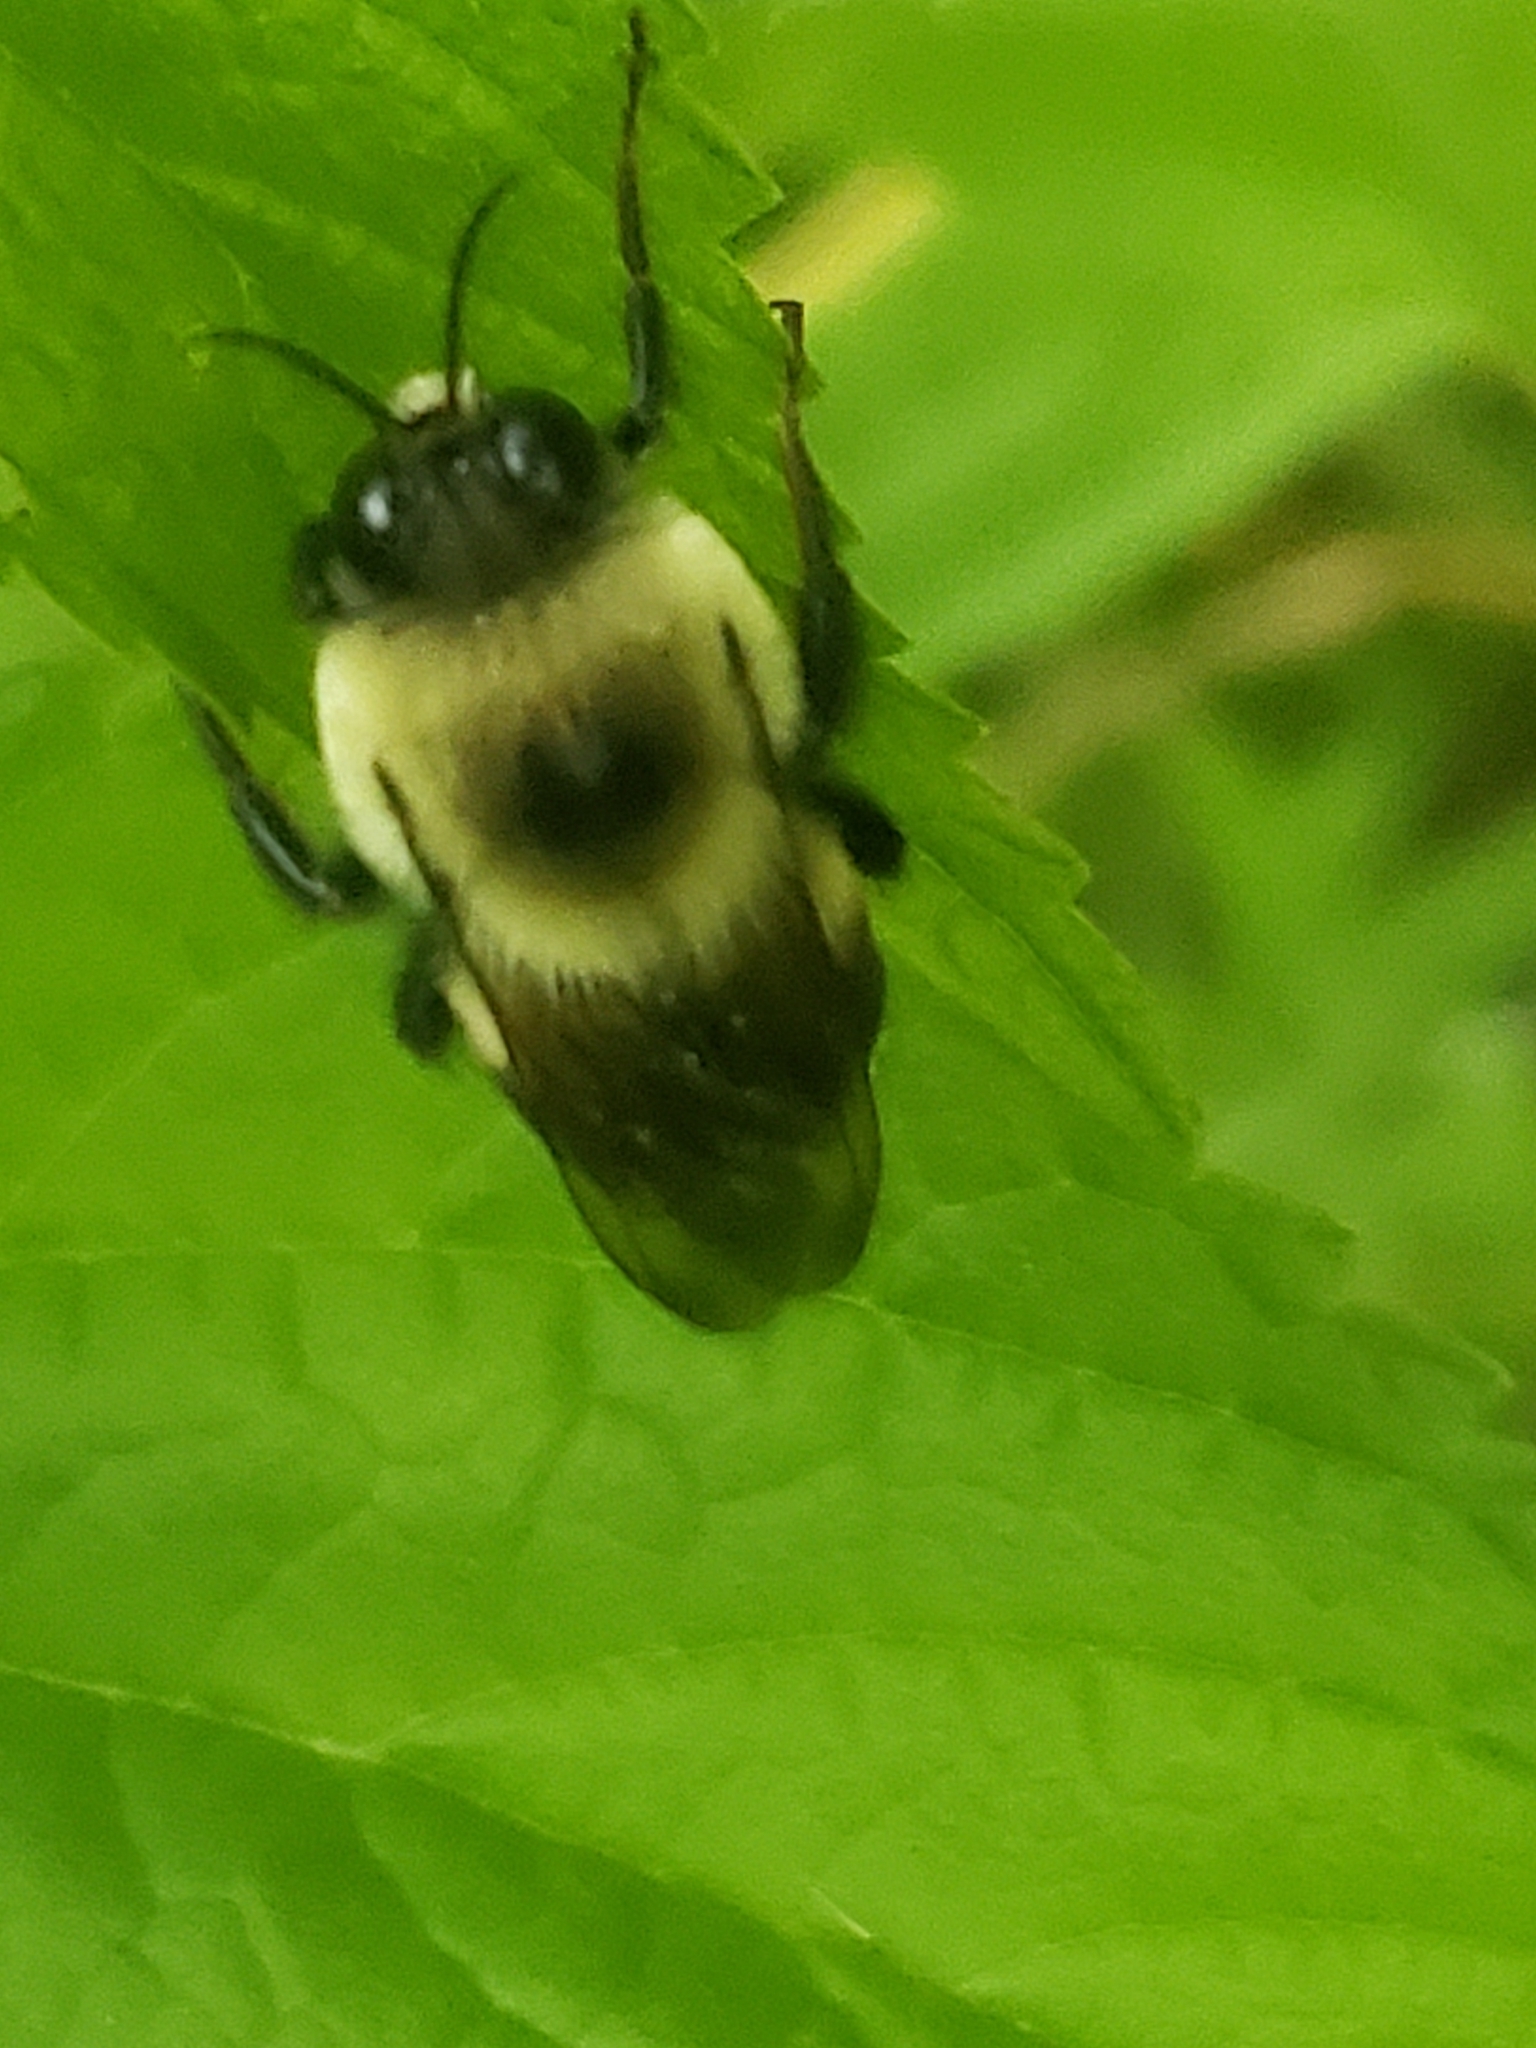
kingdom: Animalia
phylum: Arthropoda
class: Insecta
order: Hymenoptera
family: Apidae
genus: Bombus
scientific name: Bombus griseocollis
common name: Brown-belted bumble bee
